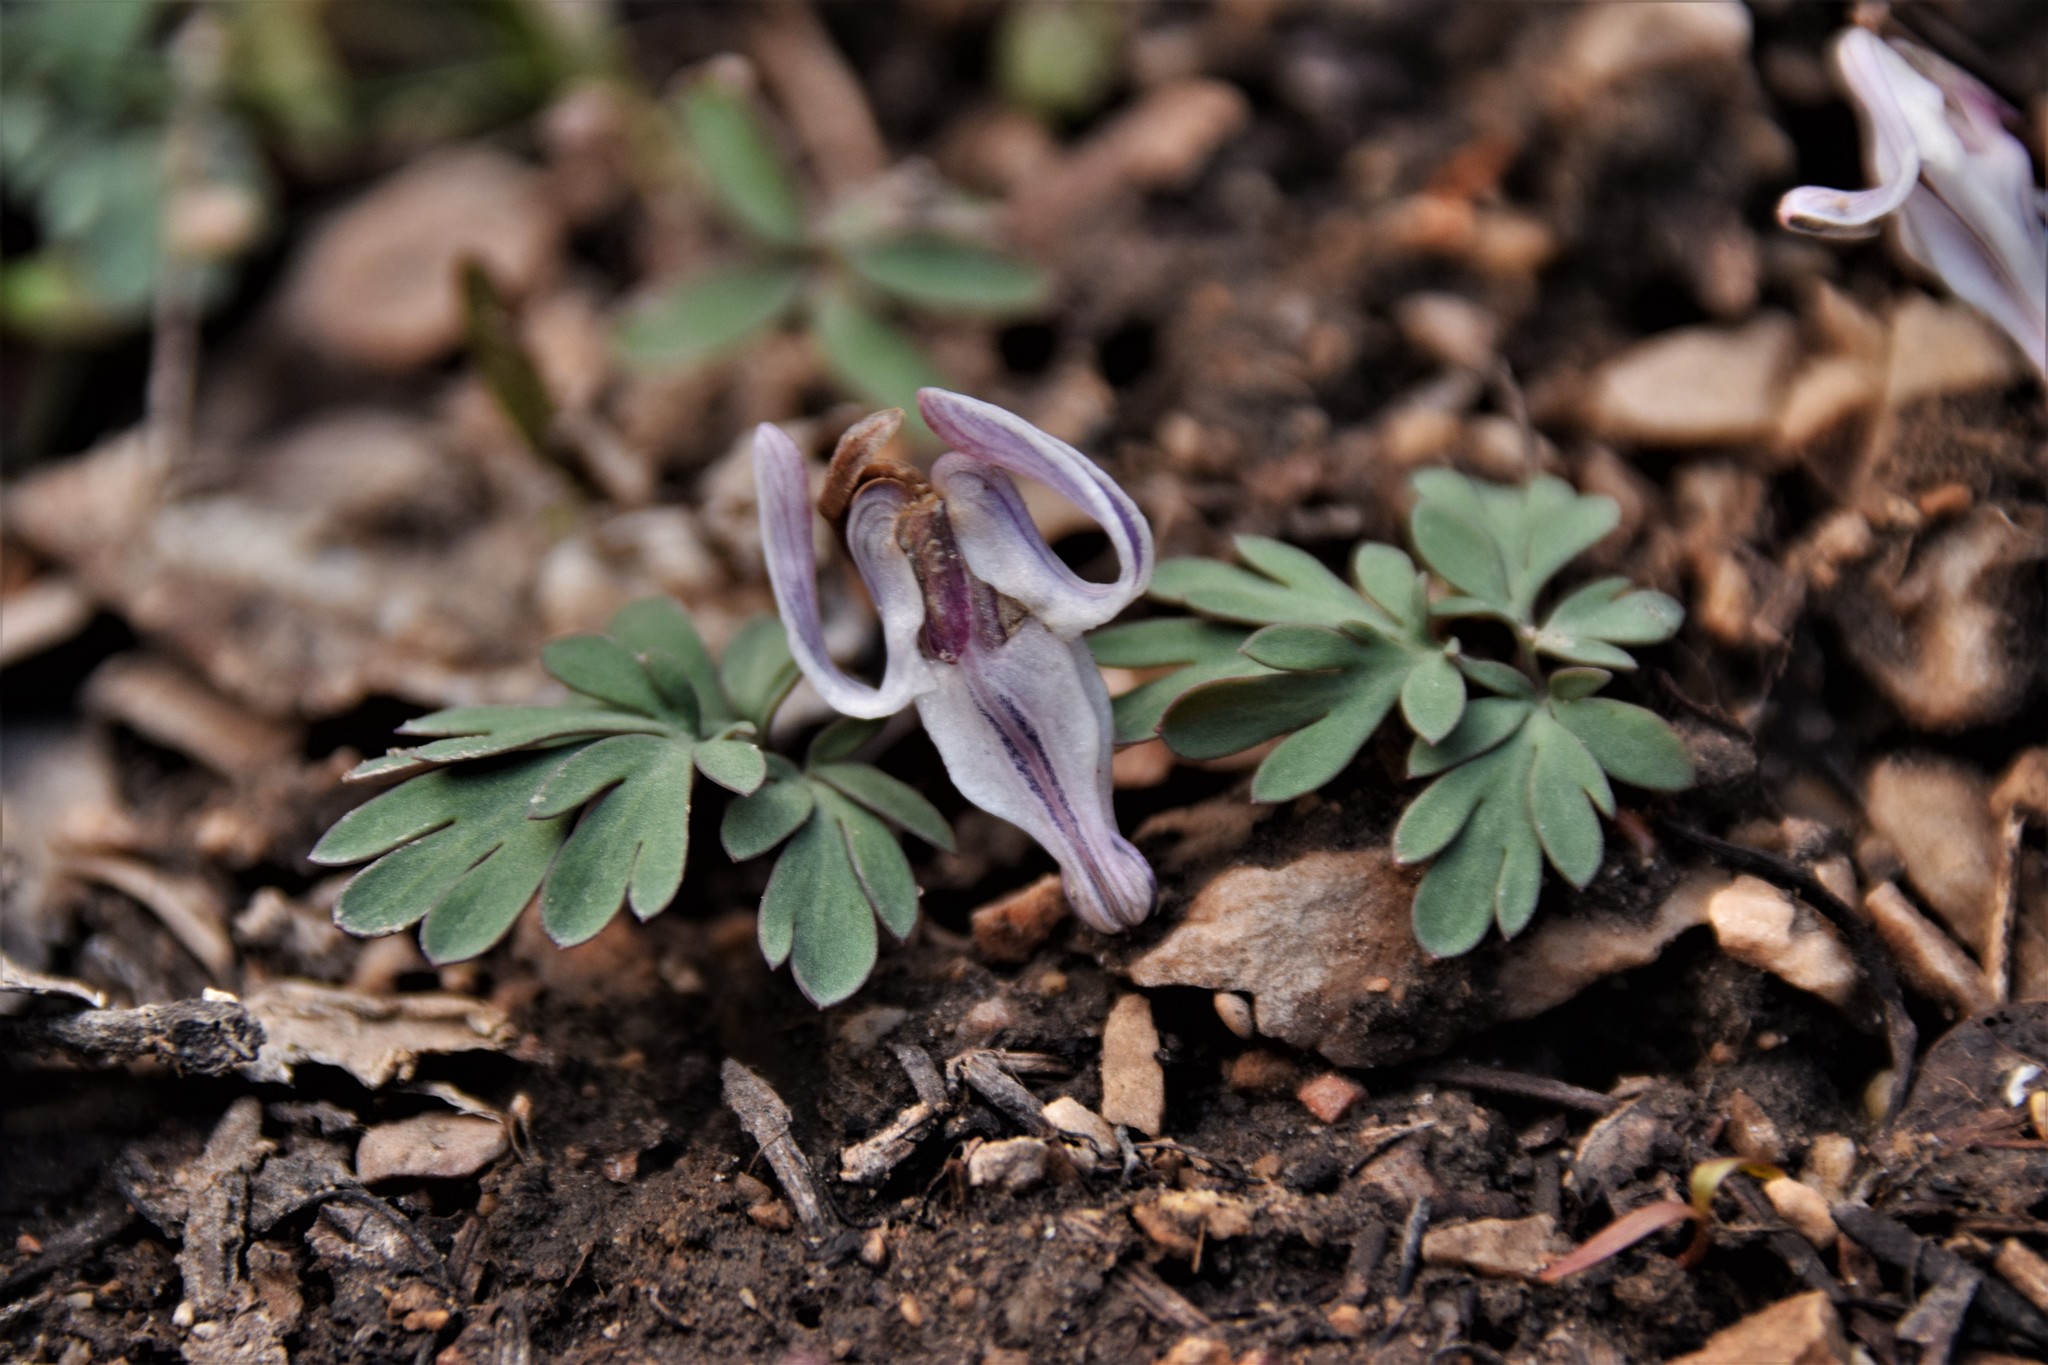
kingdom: Plantae
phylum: Tracheophyta
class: Magnoliopsida
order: Ranunculales
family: Papaveraceae
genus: Dicentra
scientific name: Dicentra uniflora
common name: Steer's-head
